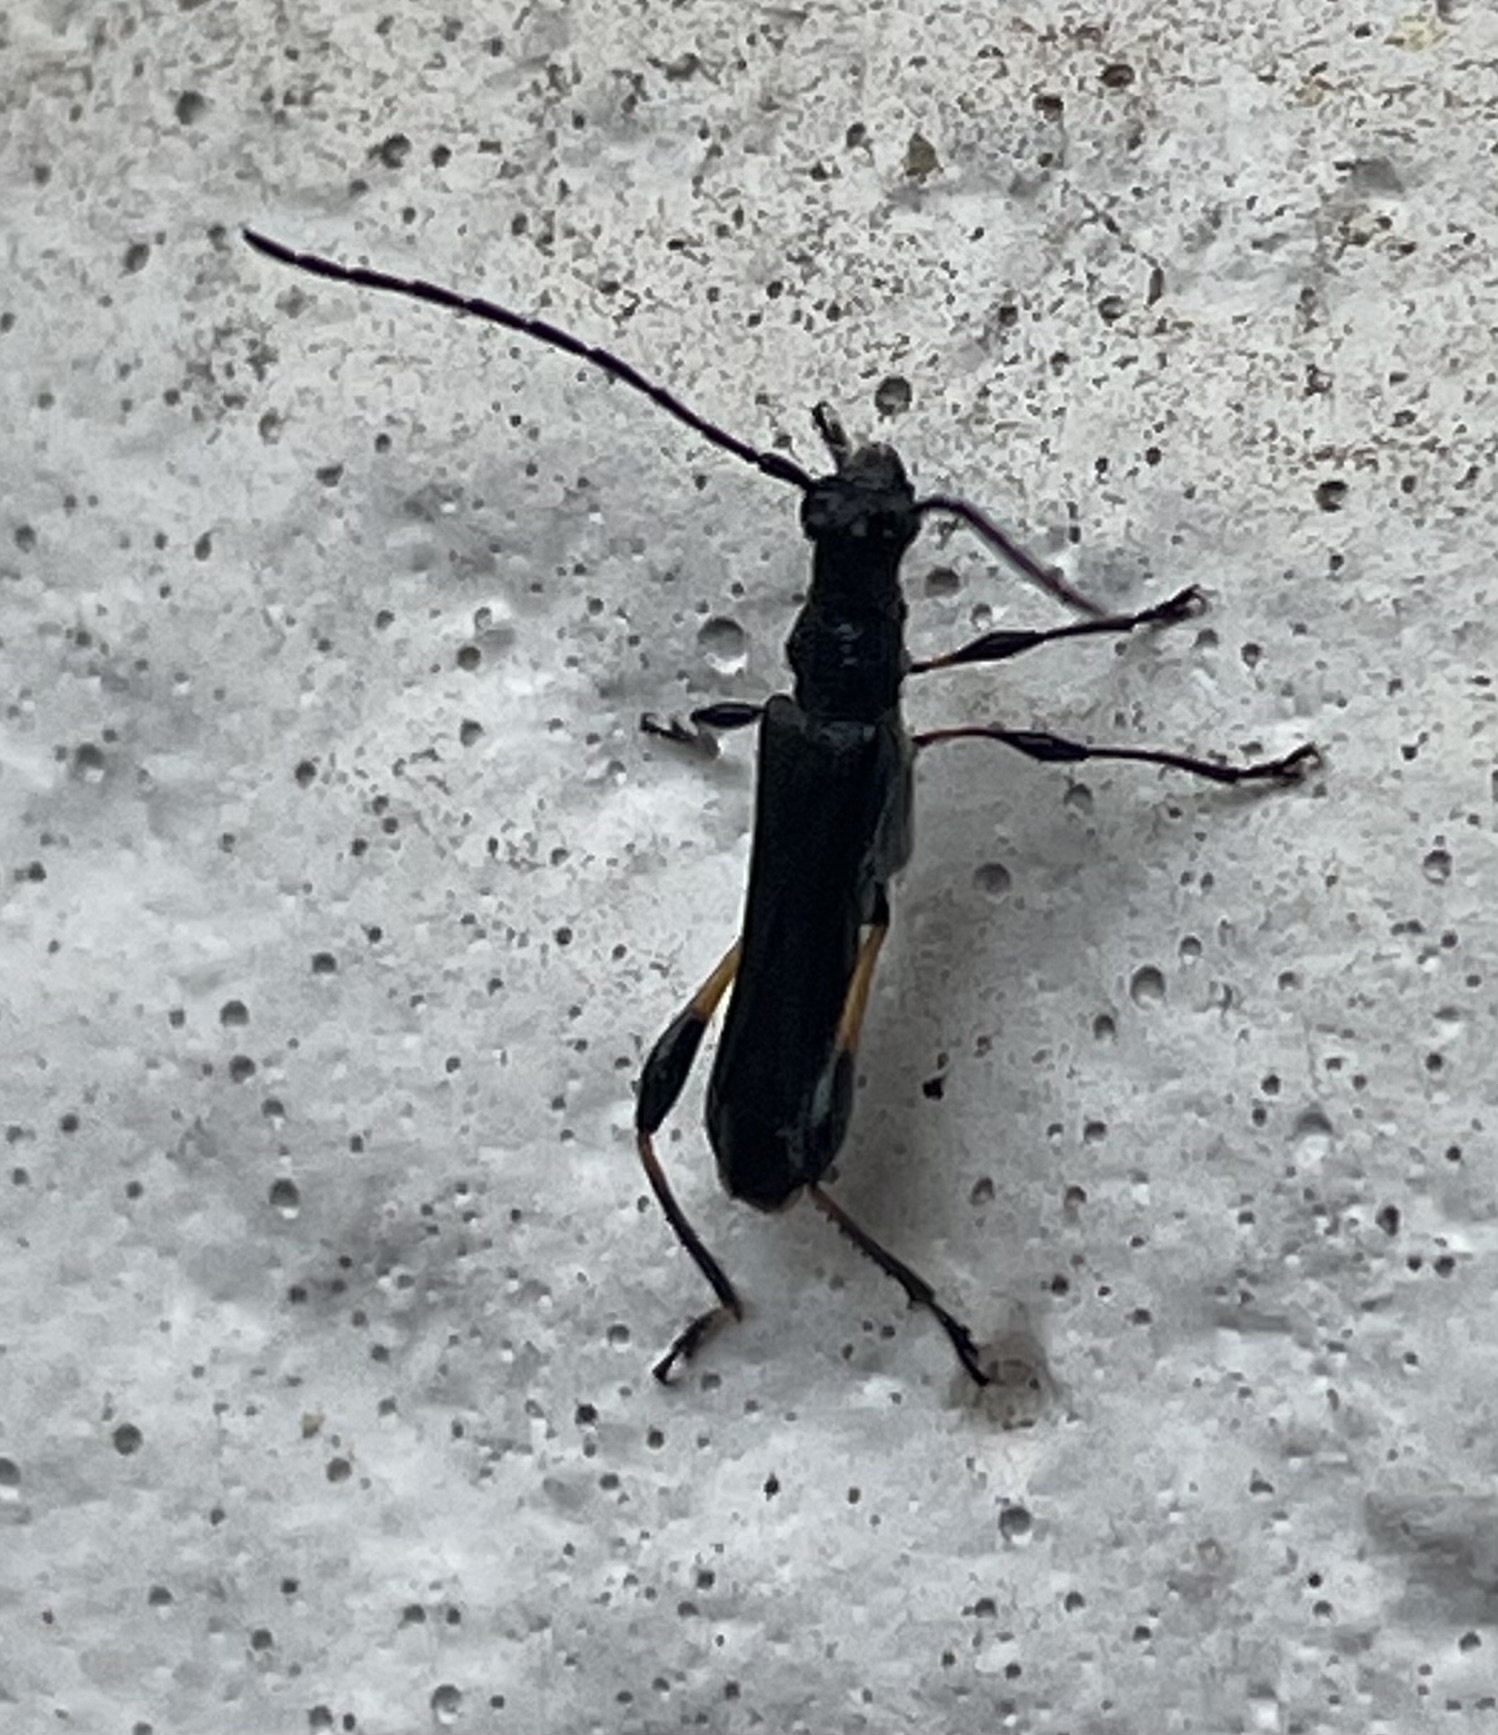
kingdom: Animalia
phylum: Arthropoda
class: Insecta
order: Coleoptera
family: Cerambycidae
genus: Callimoxys
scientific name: Callimoxys sanguinicollis
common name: Blood-necked longhorn beetle
